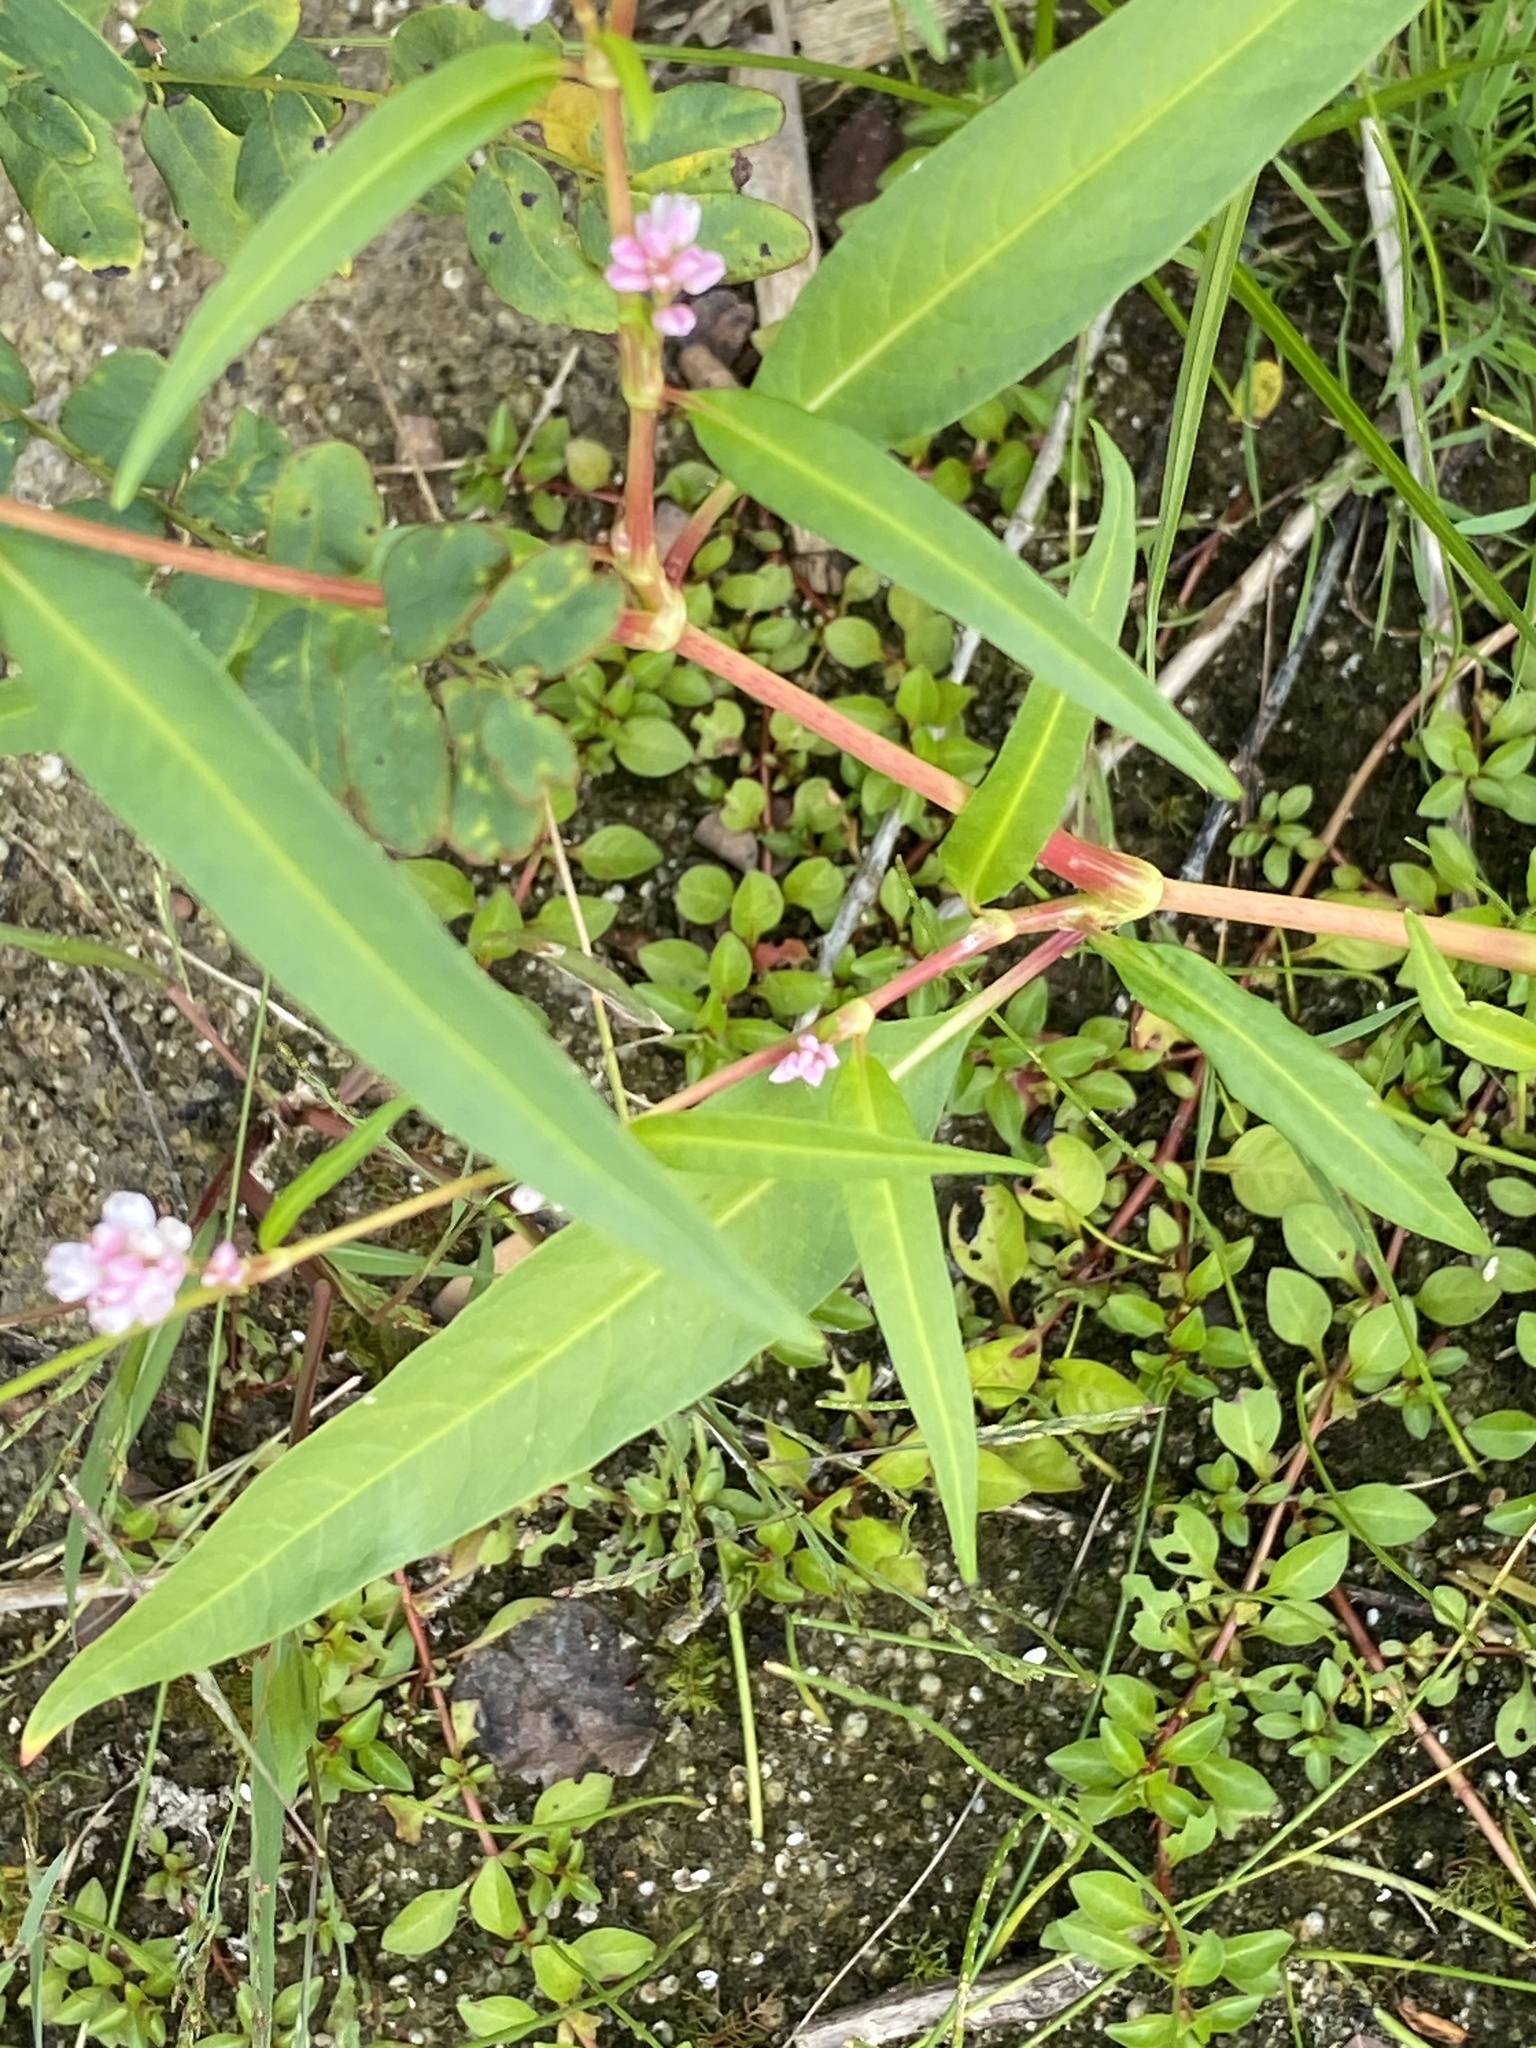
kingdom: Plantae
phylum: Tracheophyta
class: Magnoliopsida
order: Caryophyllales
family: Polygonaceae
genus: Persicaria
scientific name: Persicaria pensylvanica
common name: Pinkweed
